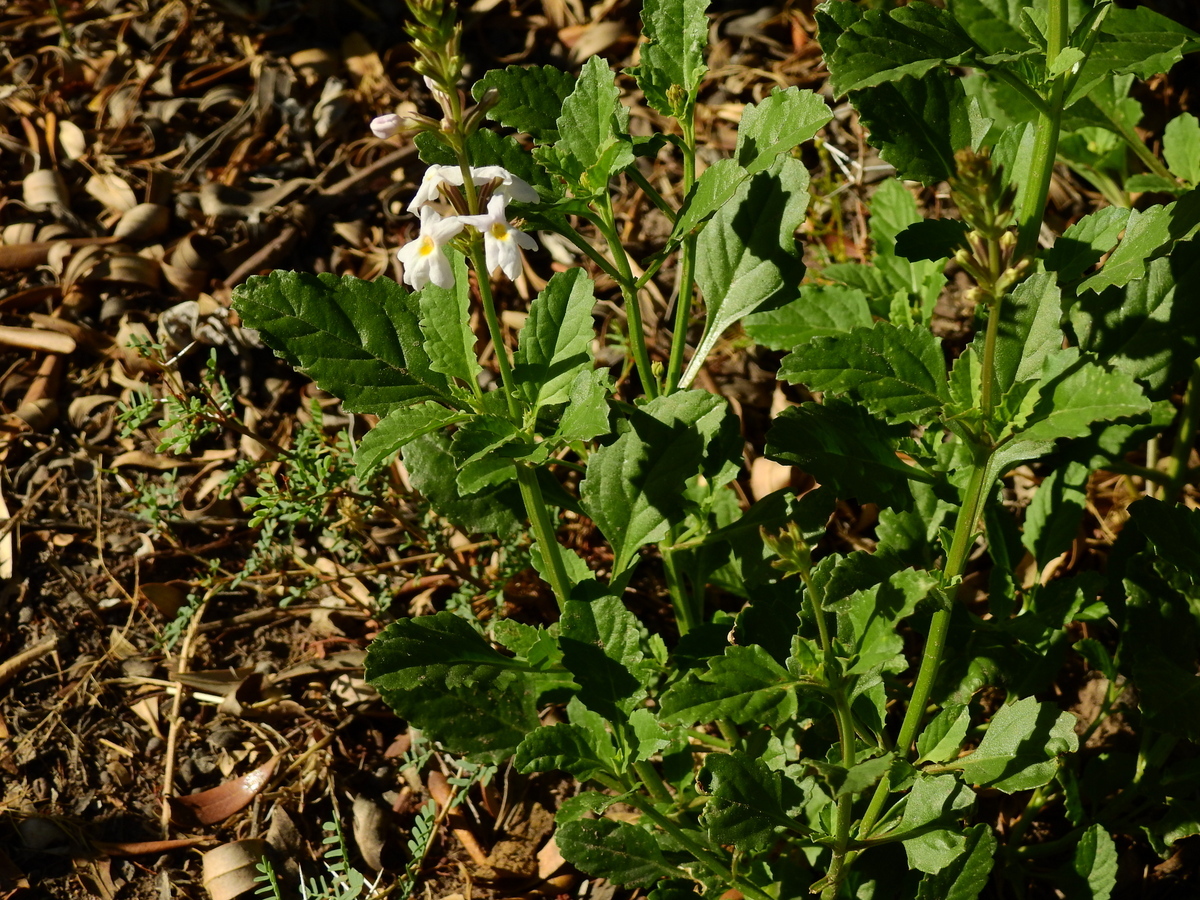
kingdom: Plantae
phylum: Tracheophyta
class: Magnoliopsida
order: Lamiales
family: Verbenaceae
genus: Pitraea
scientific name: Pitraea cuneato-ovata
